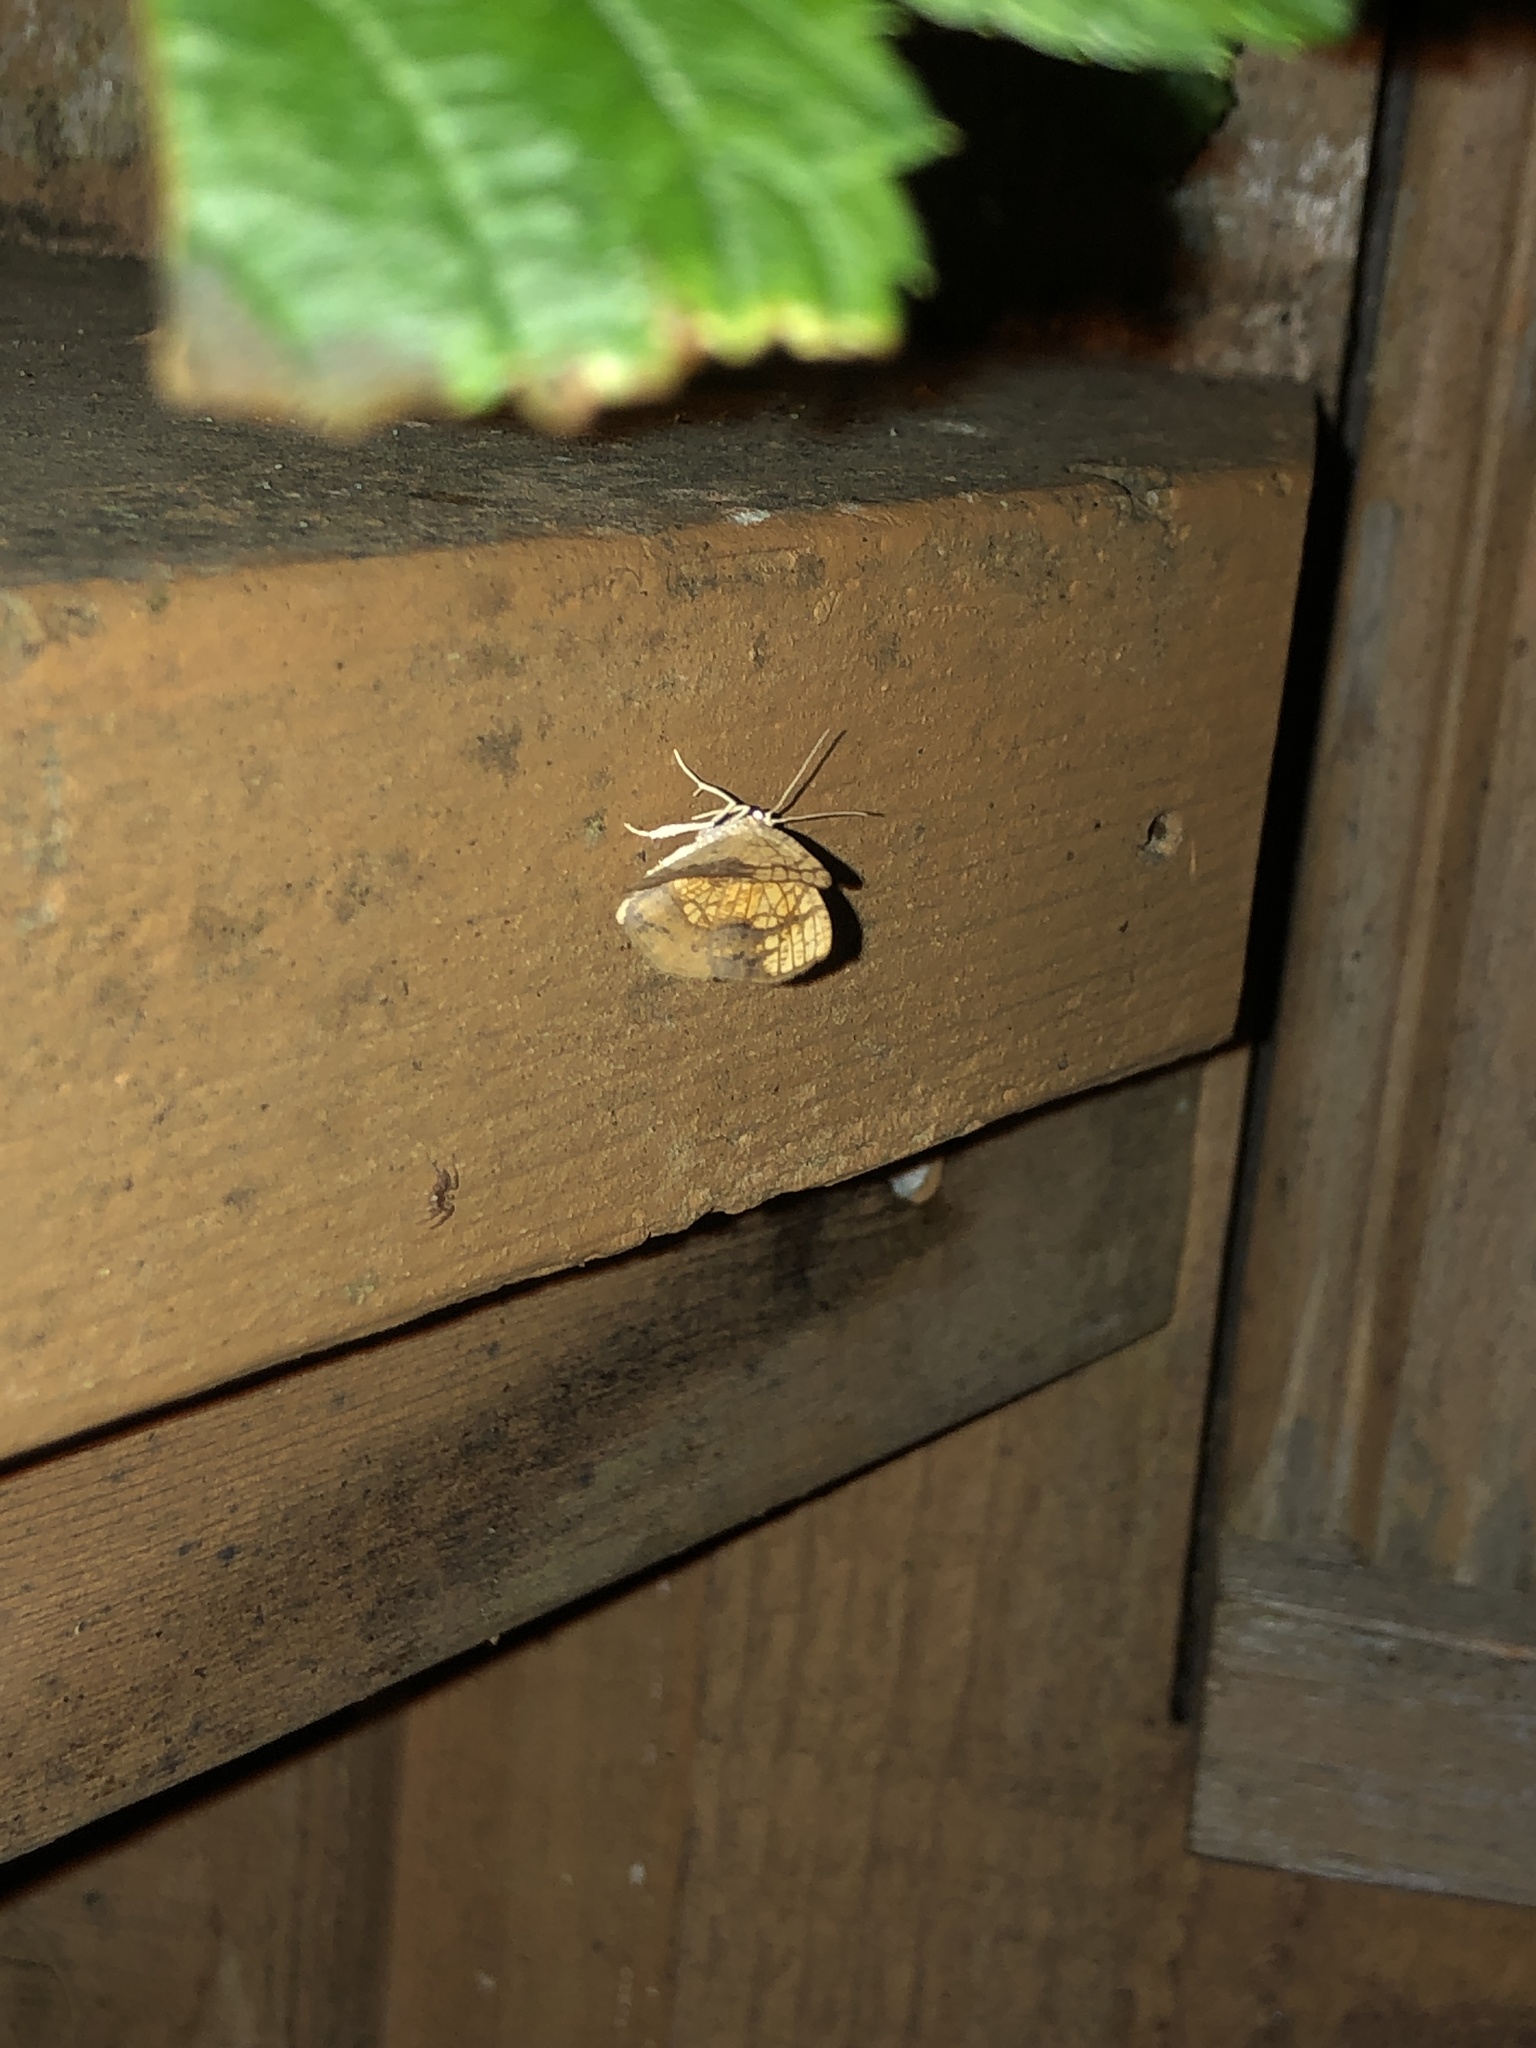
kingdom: Animalia
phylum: Arthropoda
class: Insecta
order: Lepidoptera
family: Geometridae
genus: Nematocampa
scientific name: Nematocampa resistaria
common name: Horned spanworm moth
